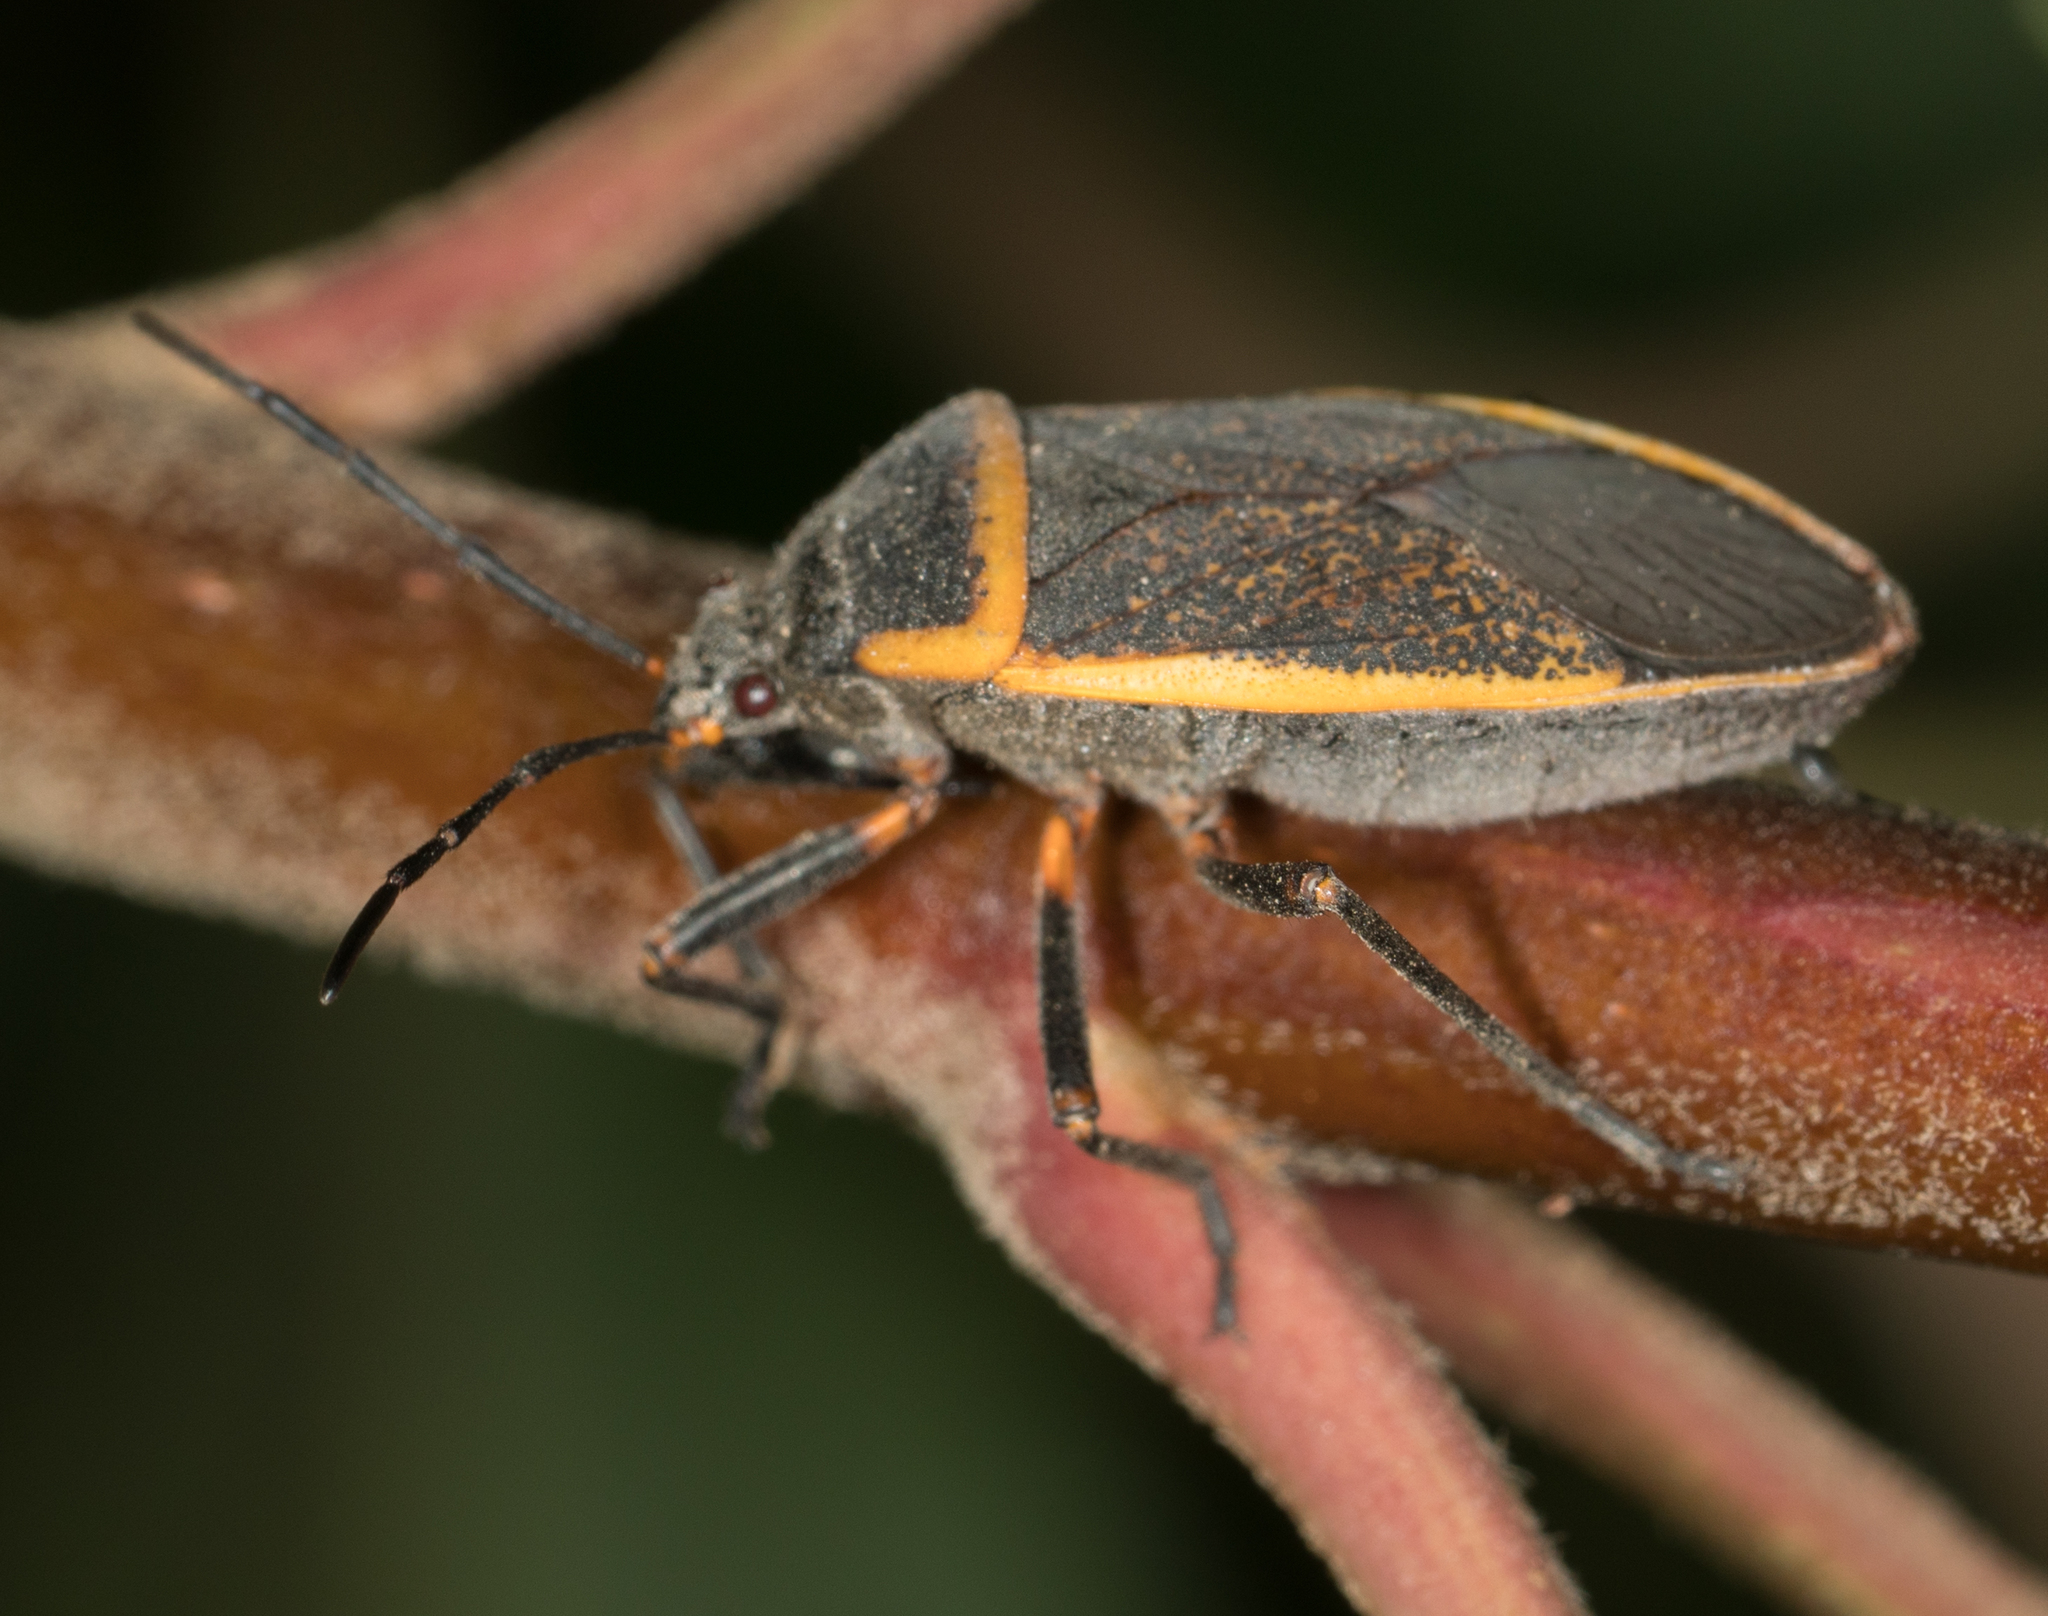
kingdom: Animalia
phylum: Arthropoda
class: Insecta
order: Hemiptera
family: Largidae
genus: Largus
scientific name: Largus californicus
